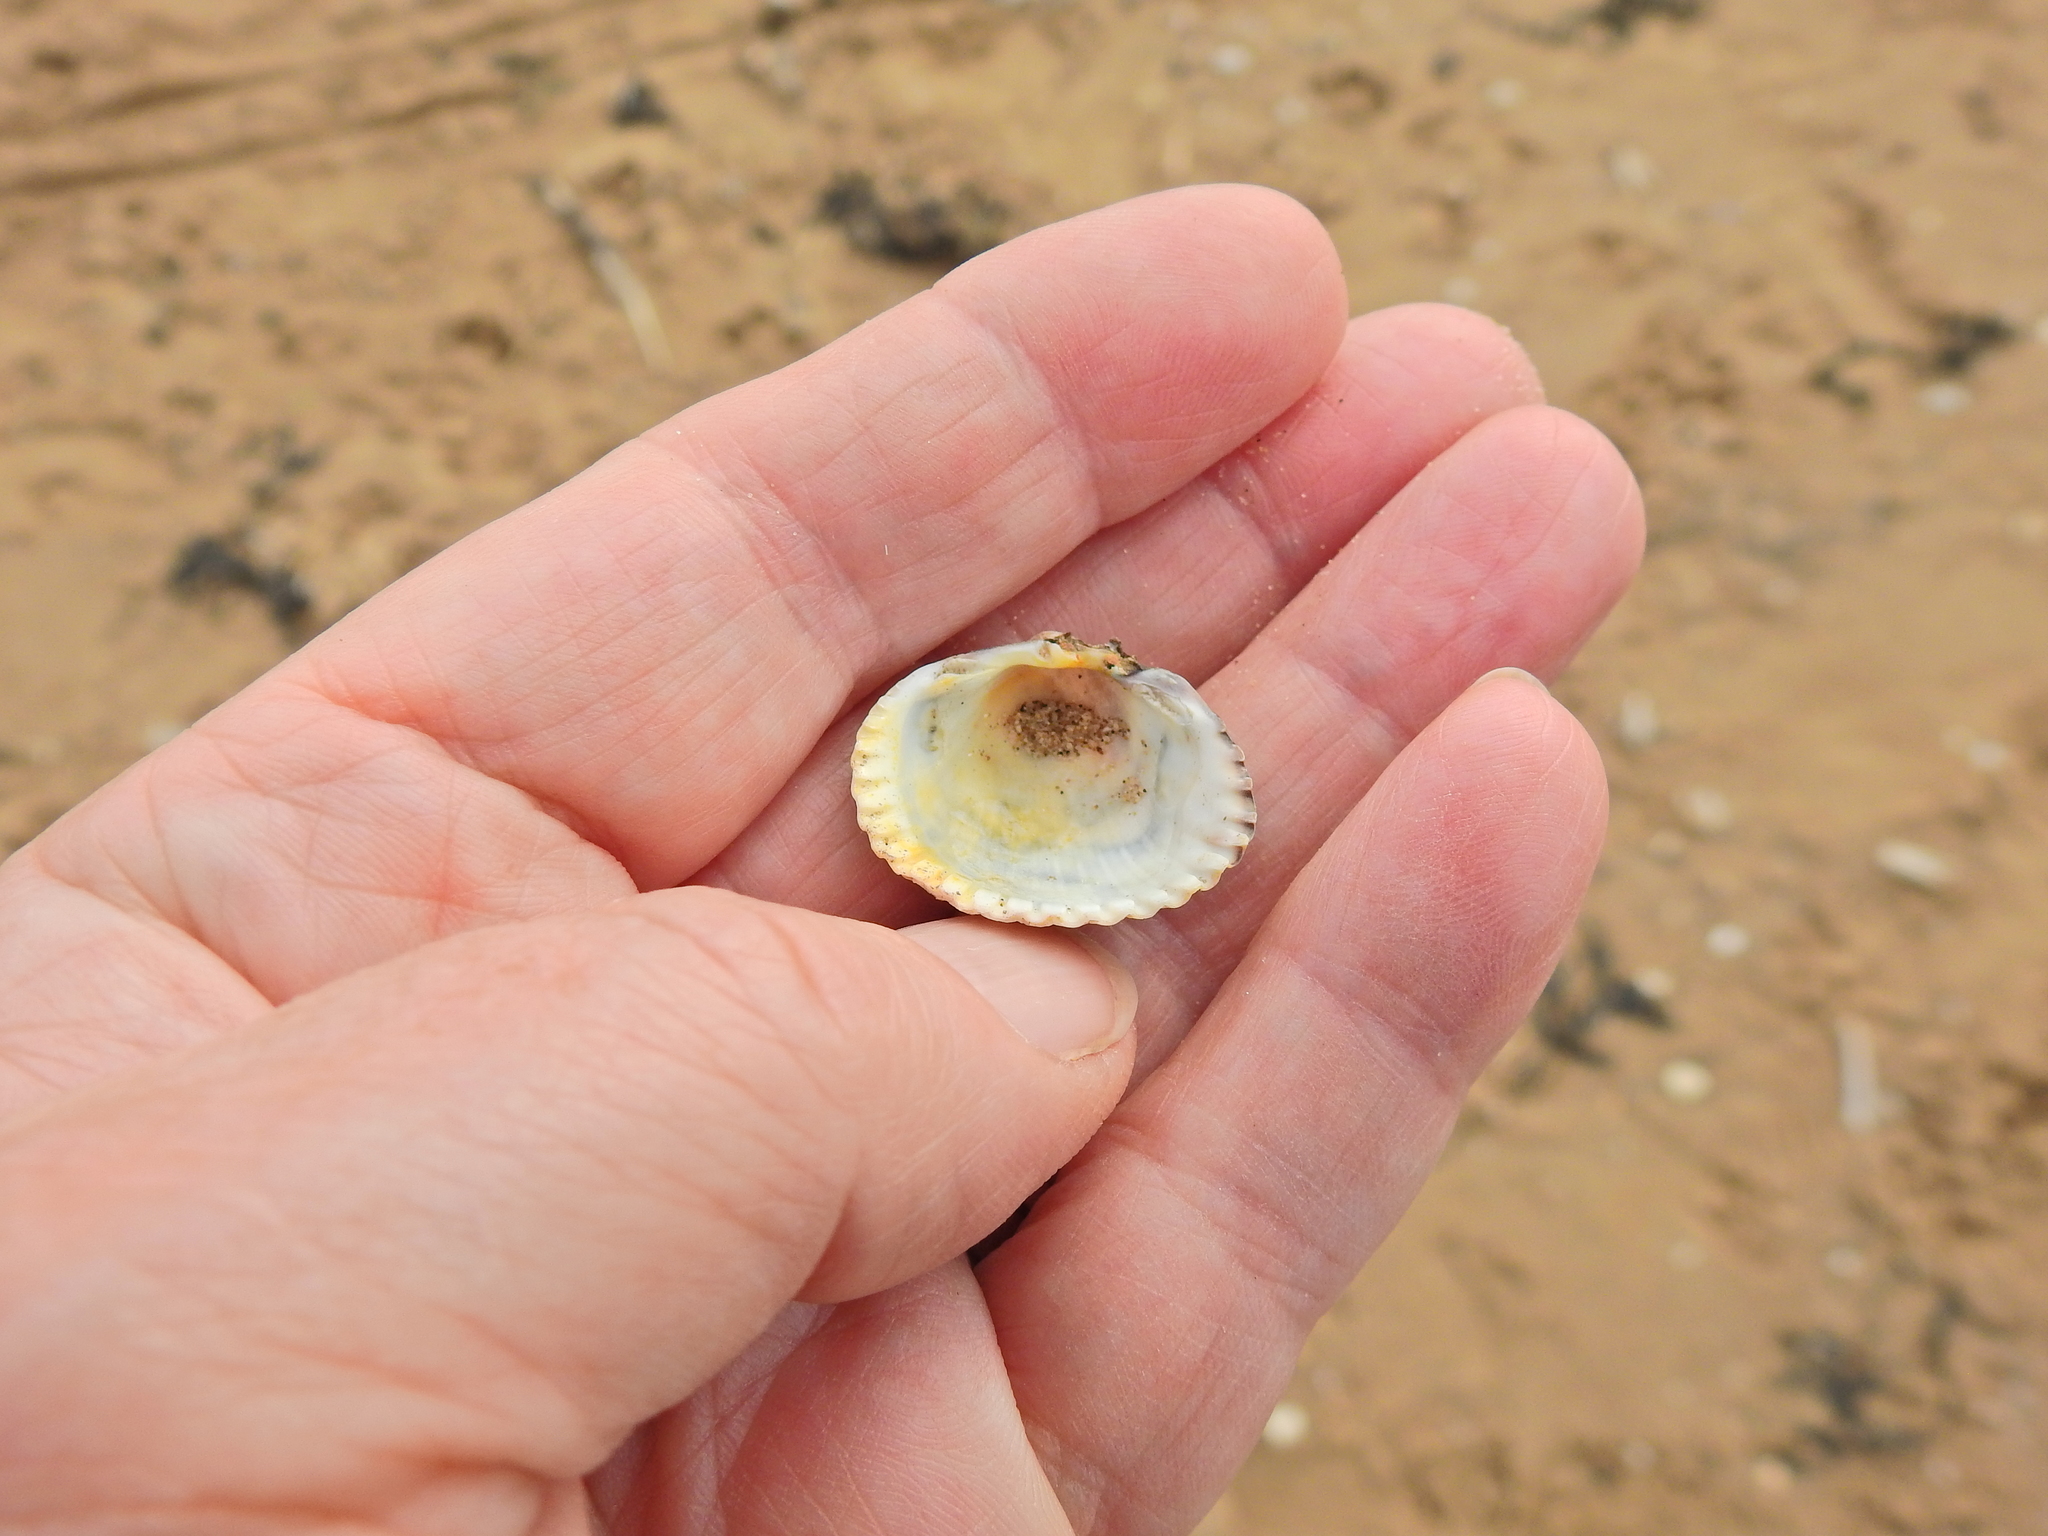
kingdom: Animalia
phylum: Mollusca
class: Bivalvia
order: Cardiida
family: Cardiidae
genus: Cerastoderma
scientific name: Cerastoderma edule
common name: Common cockle
